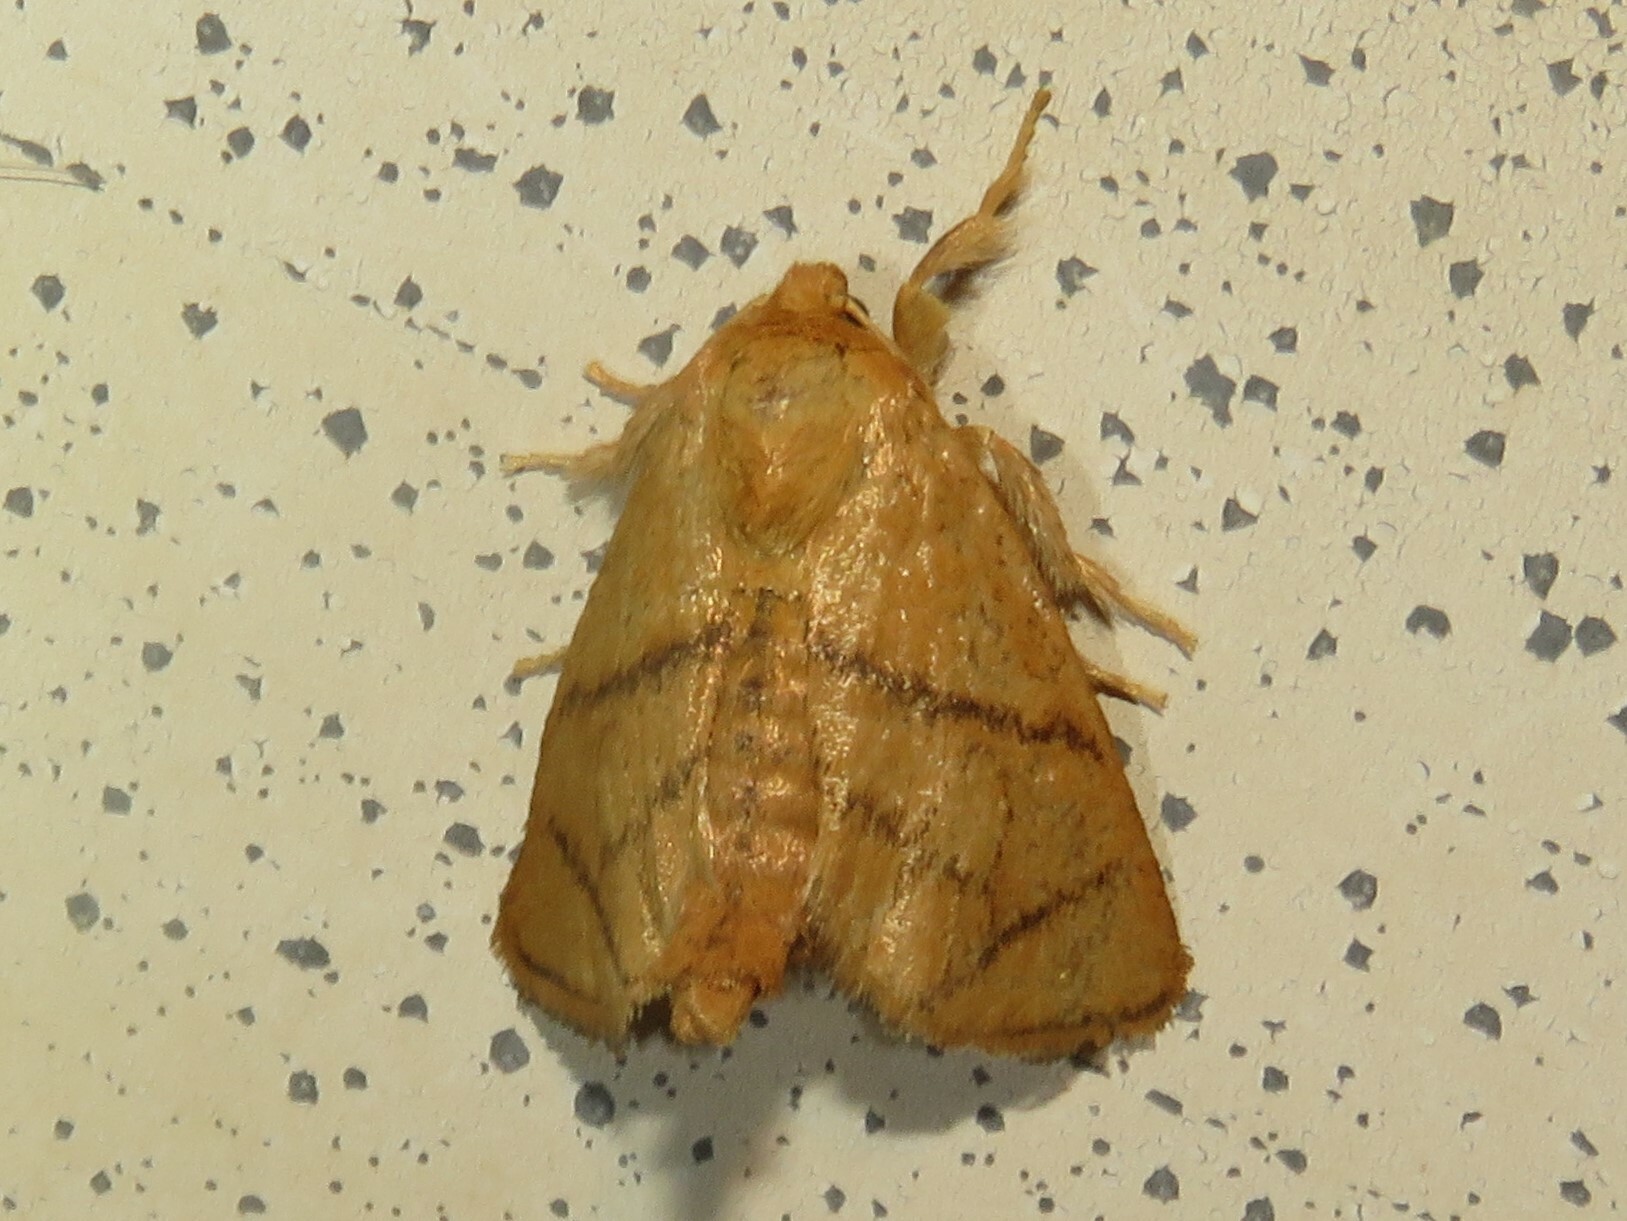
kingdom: Animalia
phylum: Arthropoda
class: Insecta
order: Lepidoptera
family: Limacodidae
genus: Apoda
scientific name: Apoda y-inversa
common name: Yellow-collared slug moth
